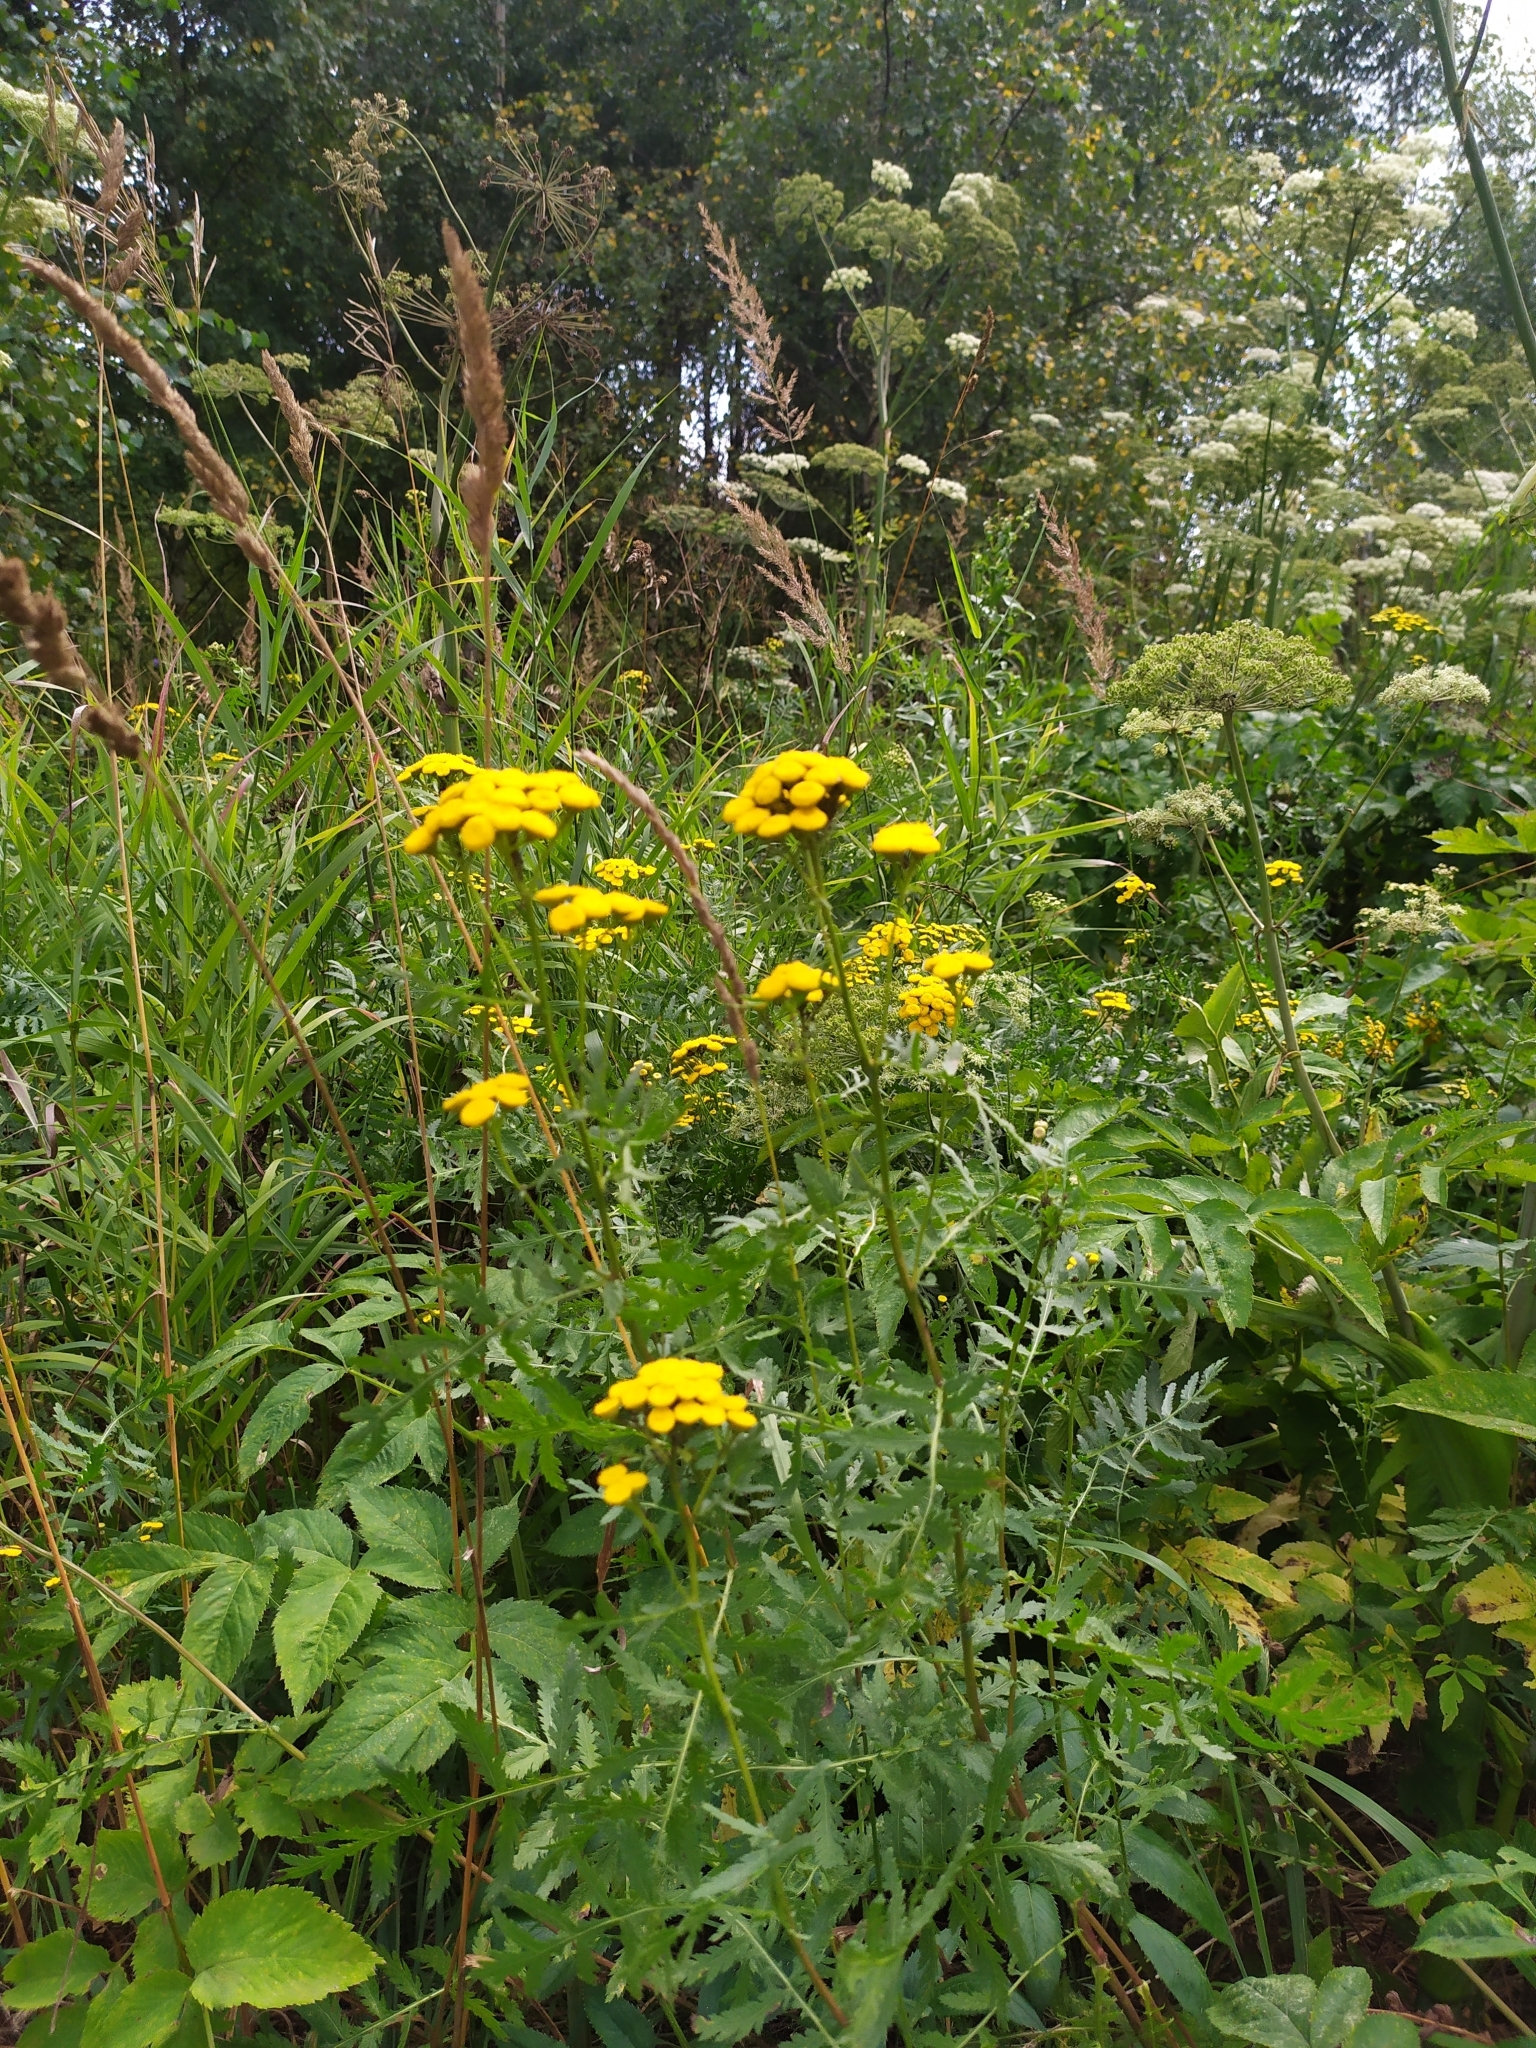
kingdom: Plantae
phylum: Tracheophyta
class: Magnoliopsida
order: Asterales
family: Asteraceae
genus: Tanacetum
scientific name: Tanacetum vulgare
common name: Common tansy
